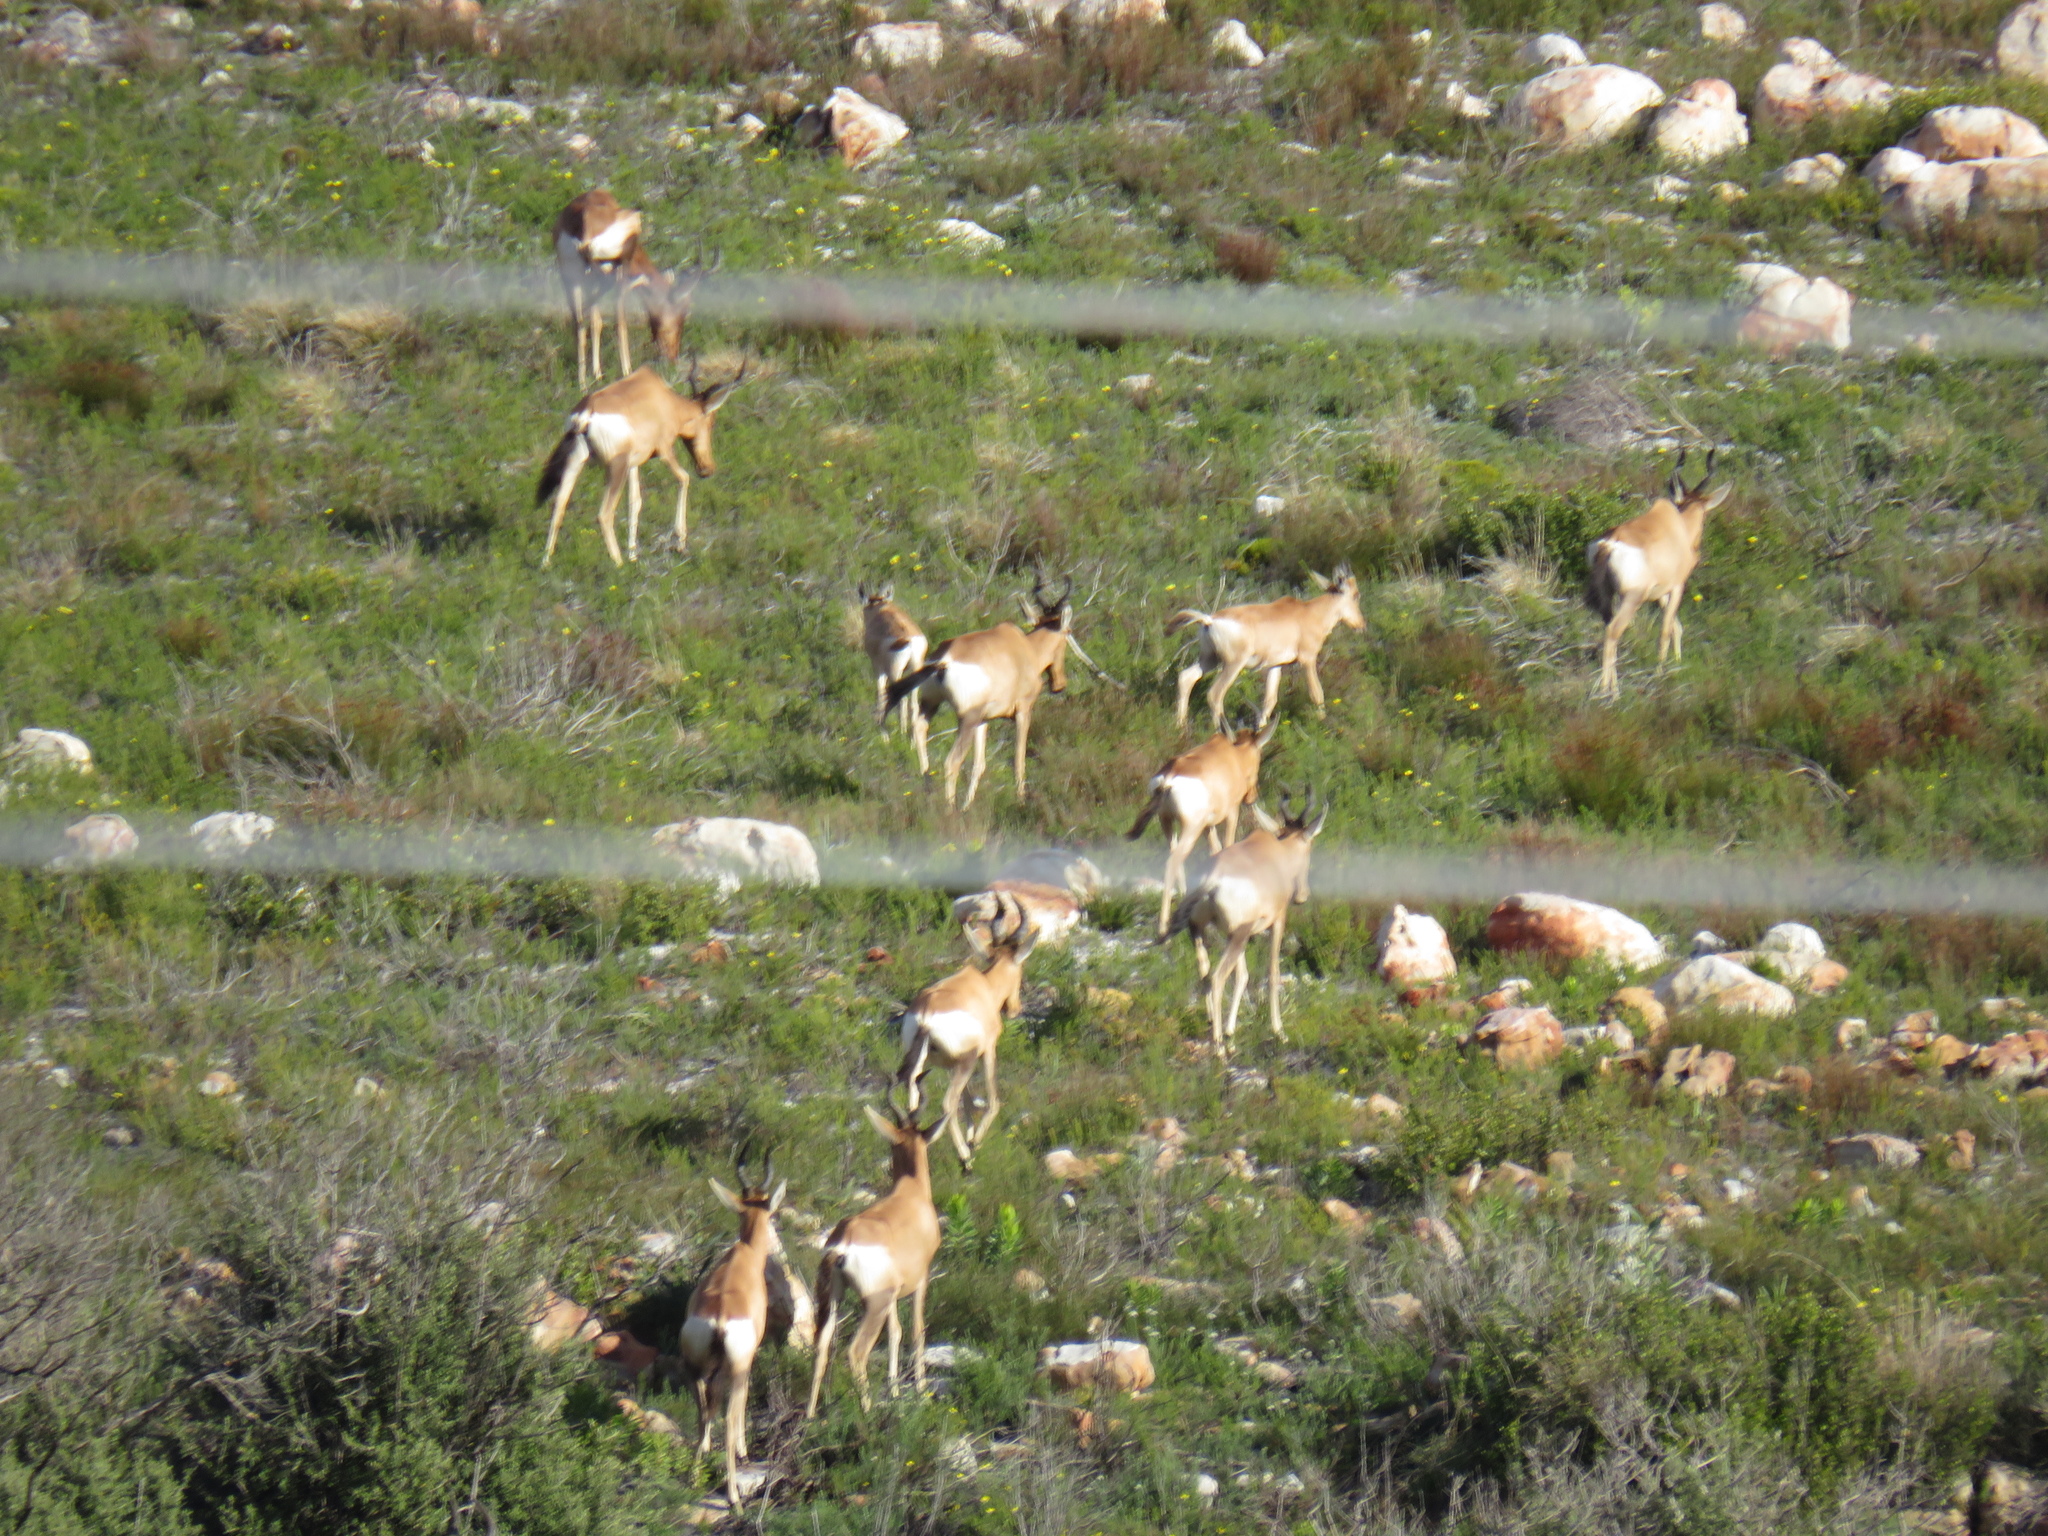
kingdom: Animalia
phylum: Chordata
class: Mammalia
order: Artiodactyla
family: Bovidae
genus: Alcelaphus
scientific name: Alcelaphus caama
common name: Red hartebeest
